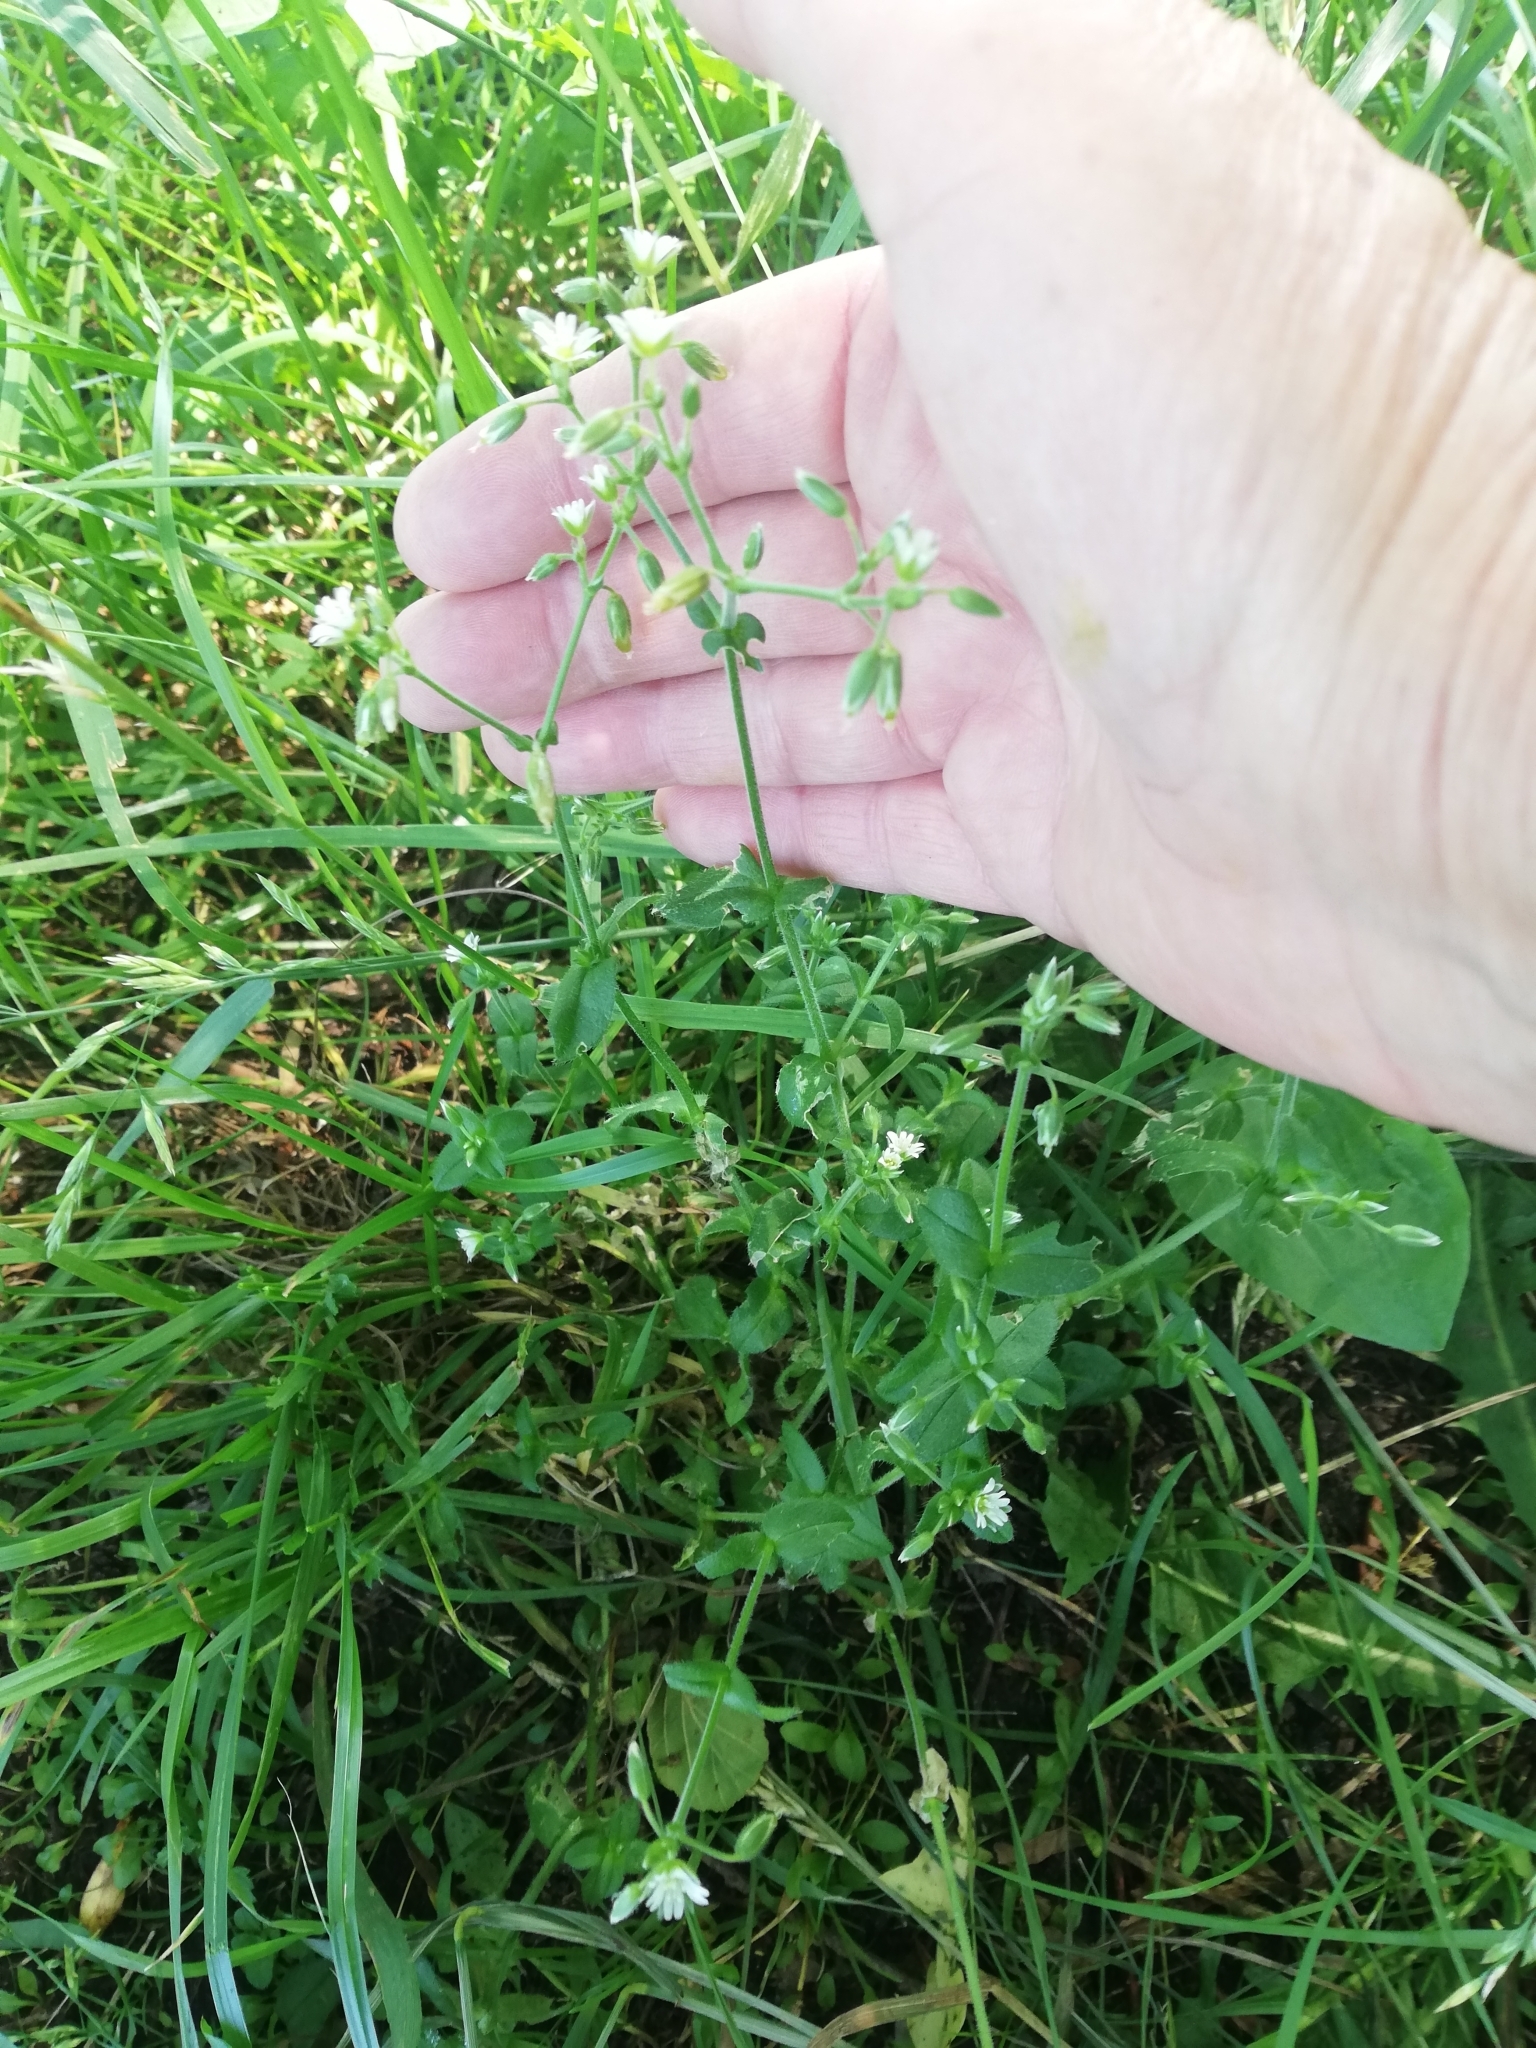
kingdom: Plantae
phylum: Tracheophyta
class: Magnoliopsida
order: Caryophyllales
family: Caryophyllaceae
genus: Cerastium
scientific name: Cerastium holosteoides
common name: Big chickweed
